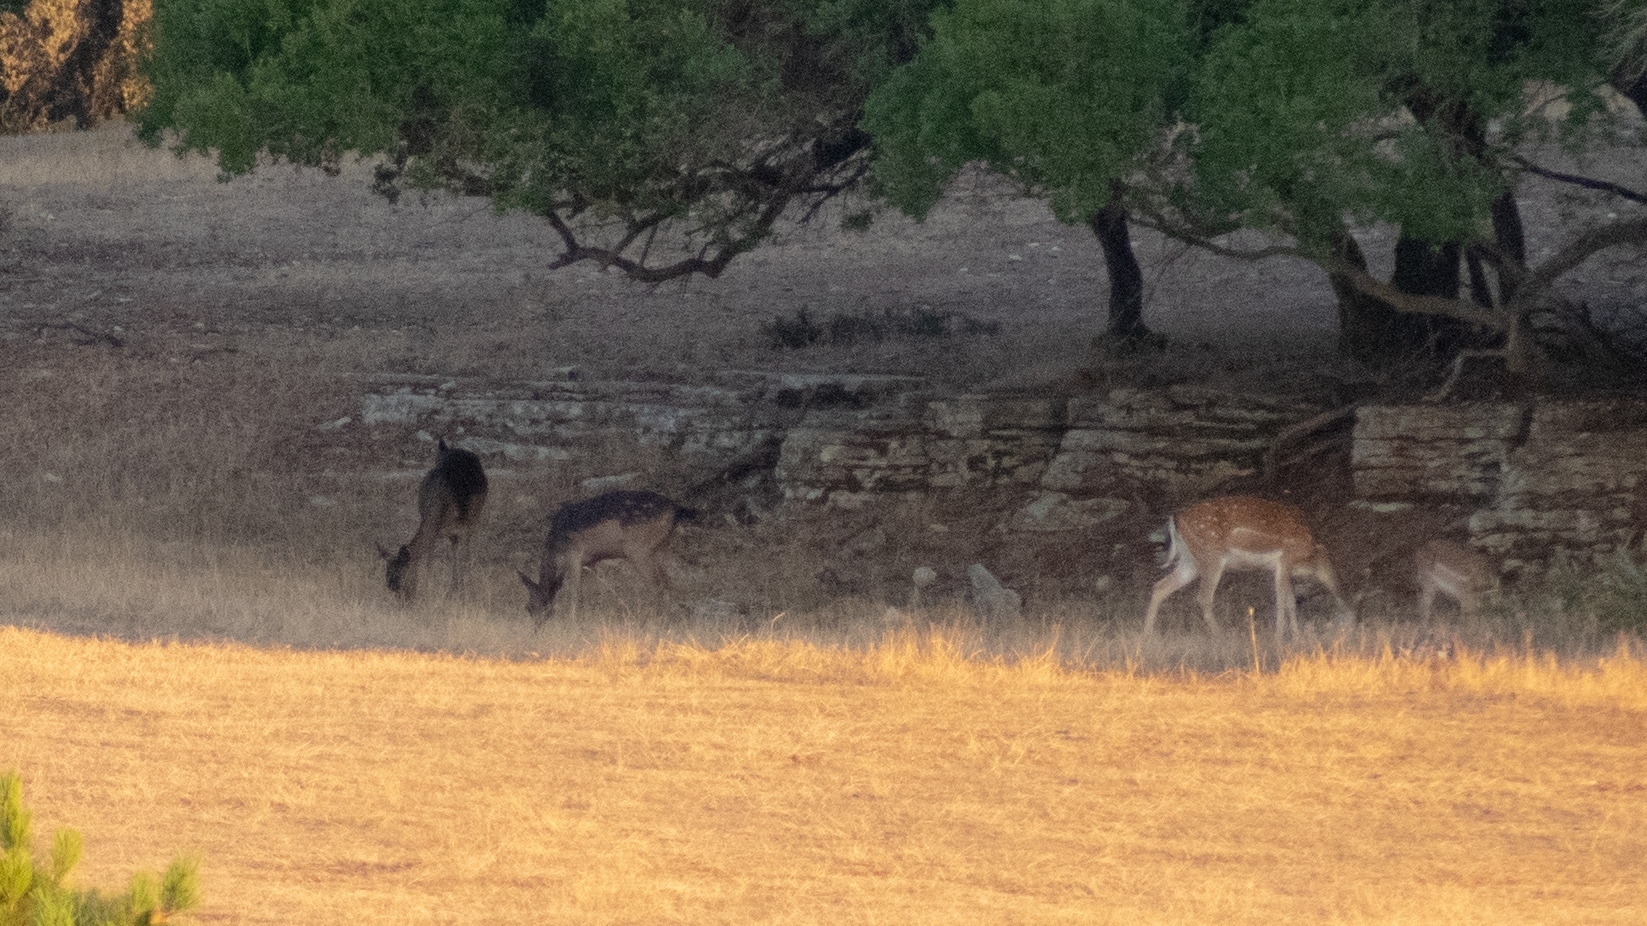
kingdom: Animalia
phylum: Chordata
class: Mammalia
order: Artiodactyla
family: Cervidae
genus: Dama
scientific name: Dama dama
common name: Fallow deer
